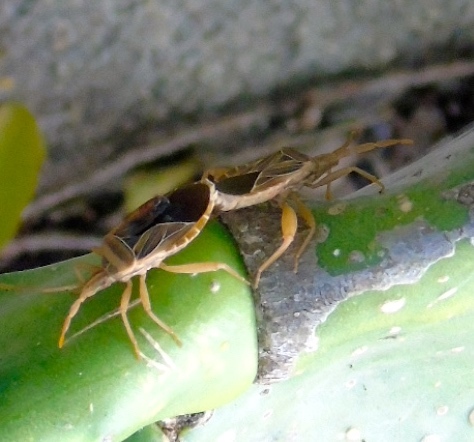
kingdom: Animalia
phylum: Arthropoda
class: Insecta
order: Hemiptera
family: Coreidae
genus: Chelinidea
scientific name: Chelinidea
